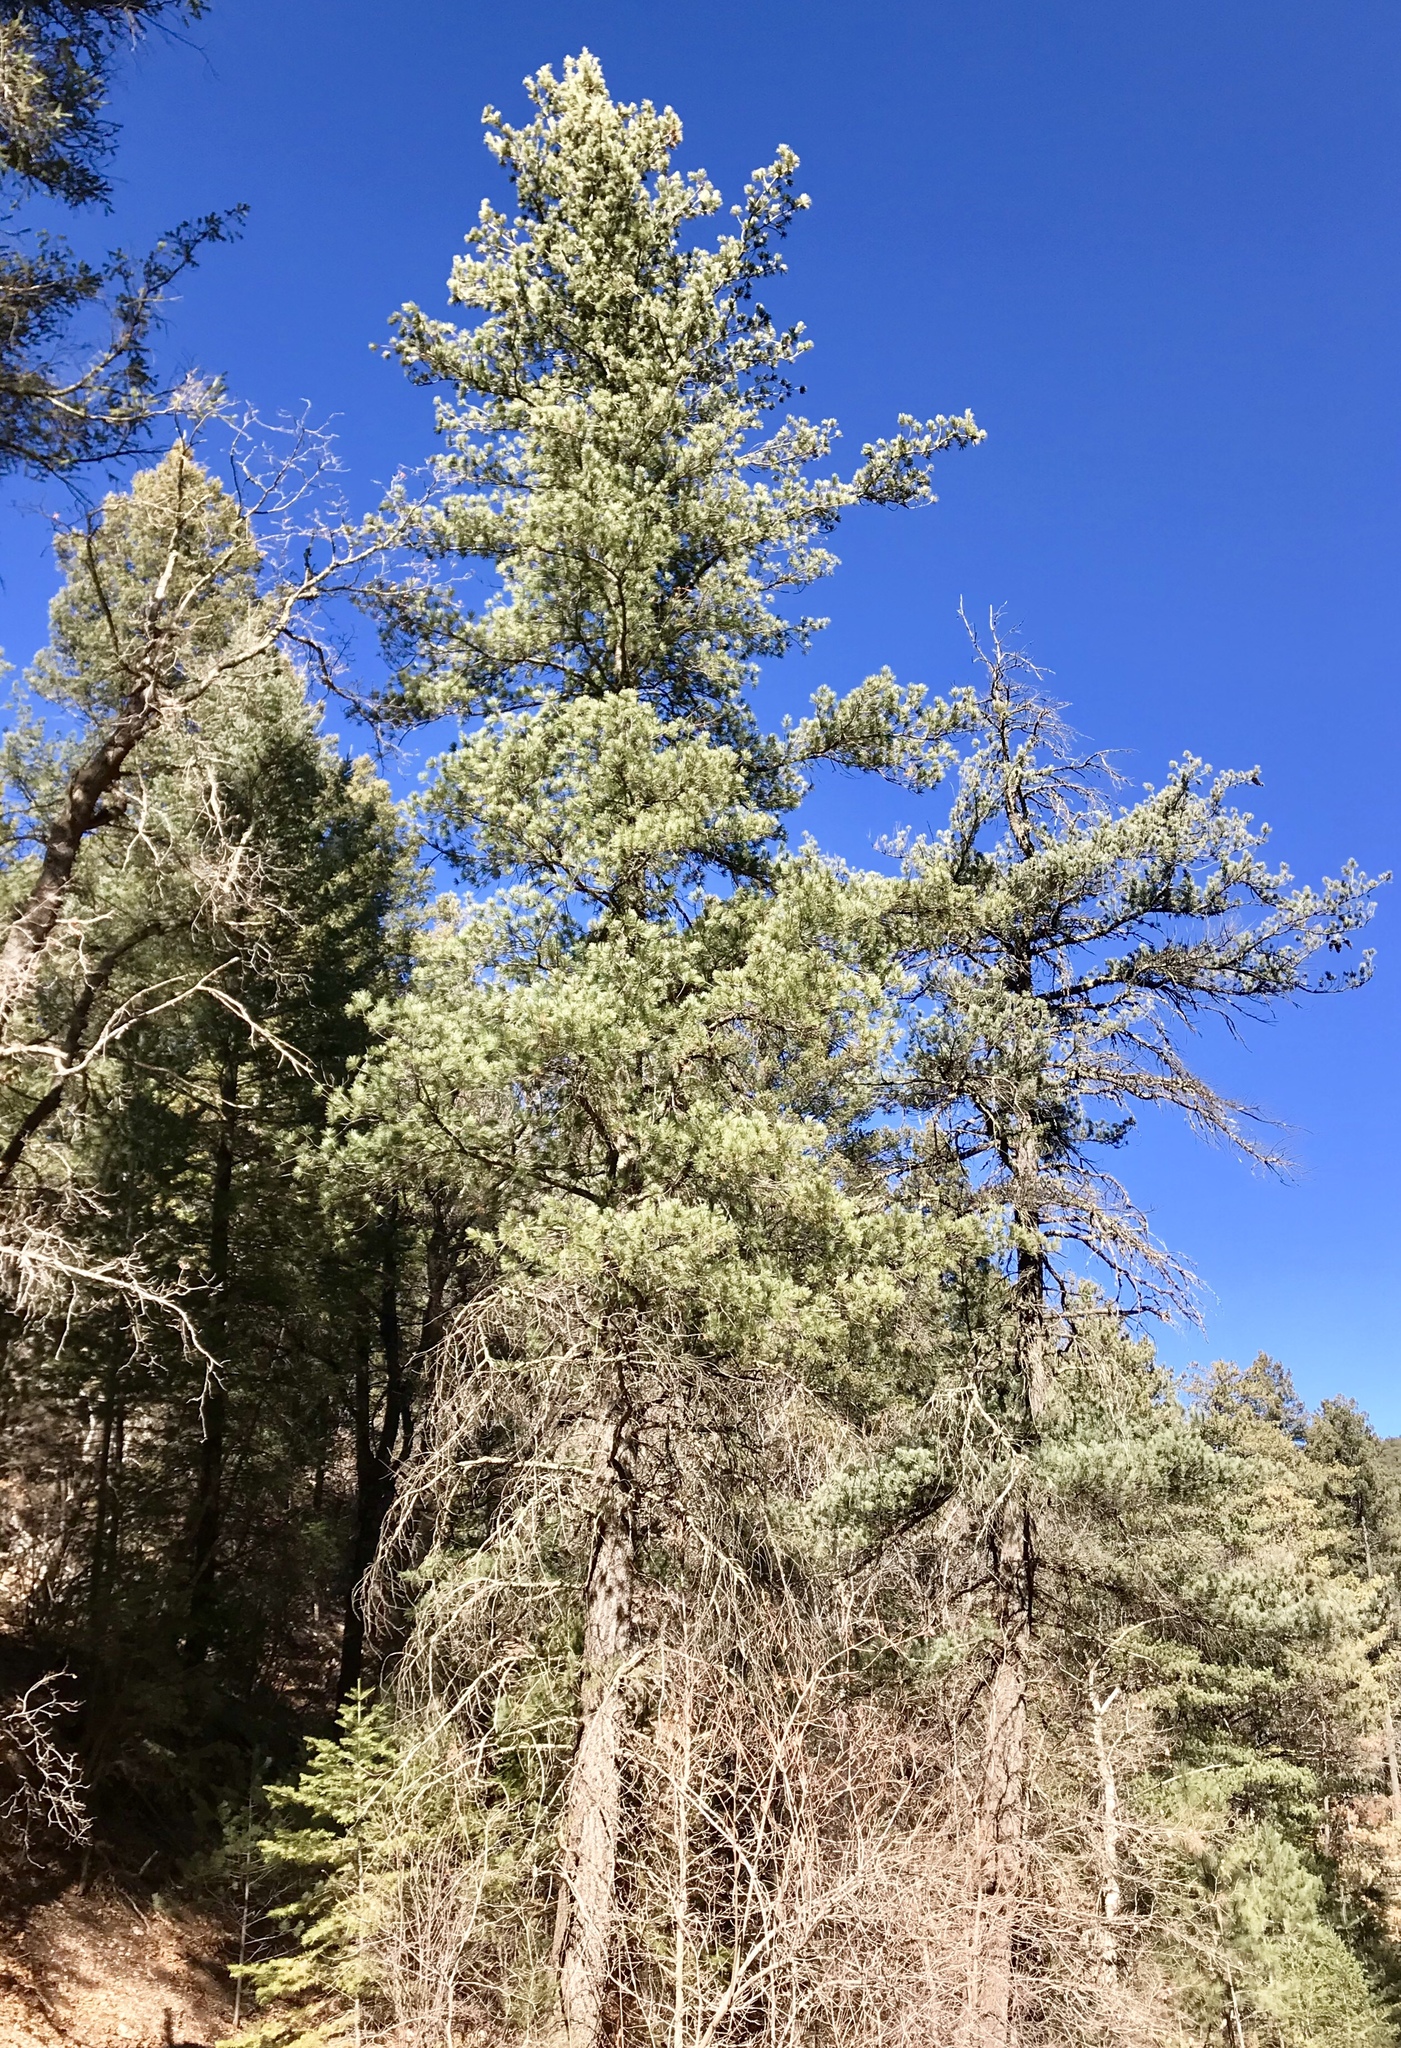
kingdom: Plantae
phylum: Tracheophyta
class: Pinopsida
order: Pinales
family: Pinaceae
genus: Pinus
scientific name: Pinus strobiformis
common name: Southwestern white pine
